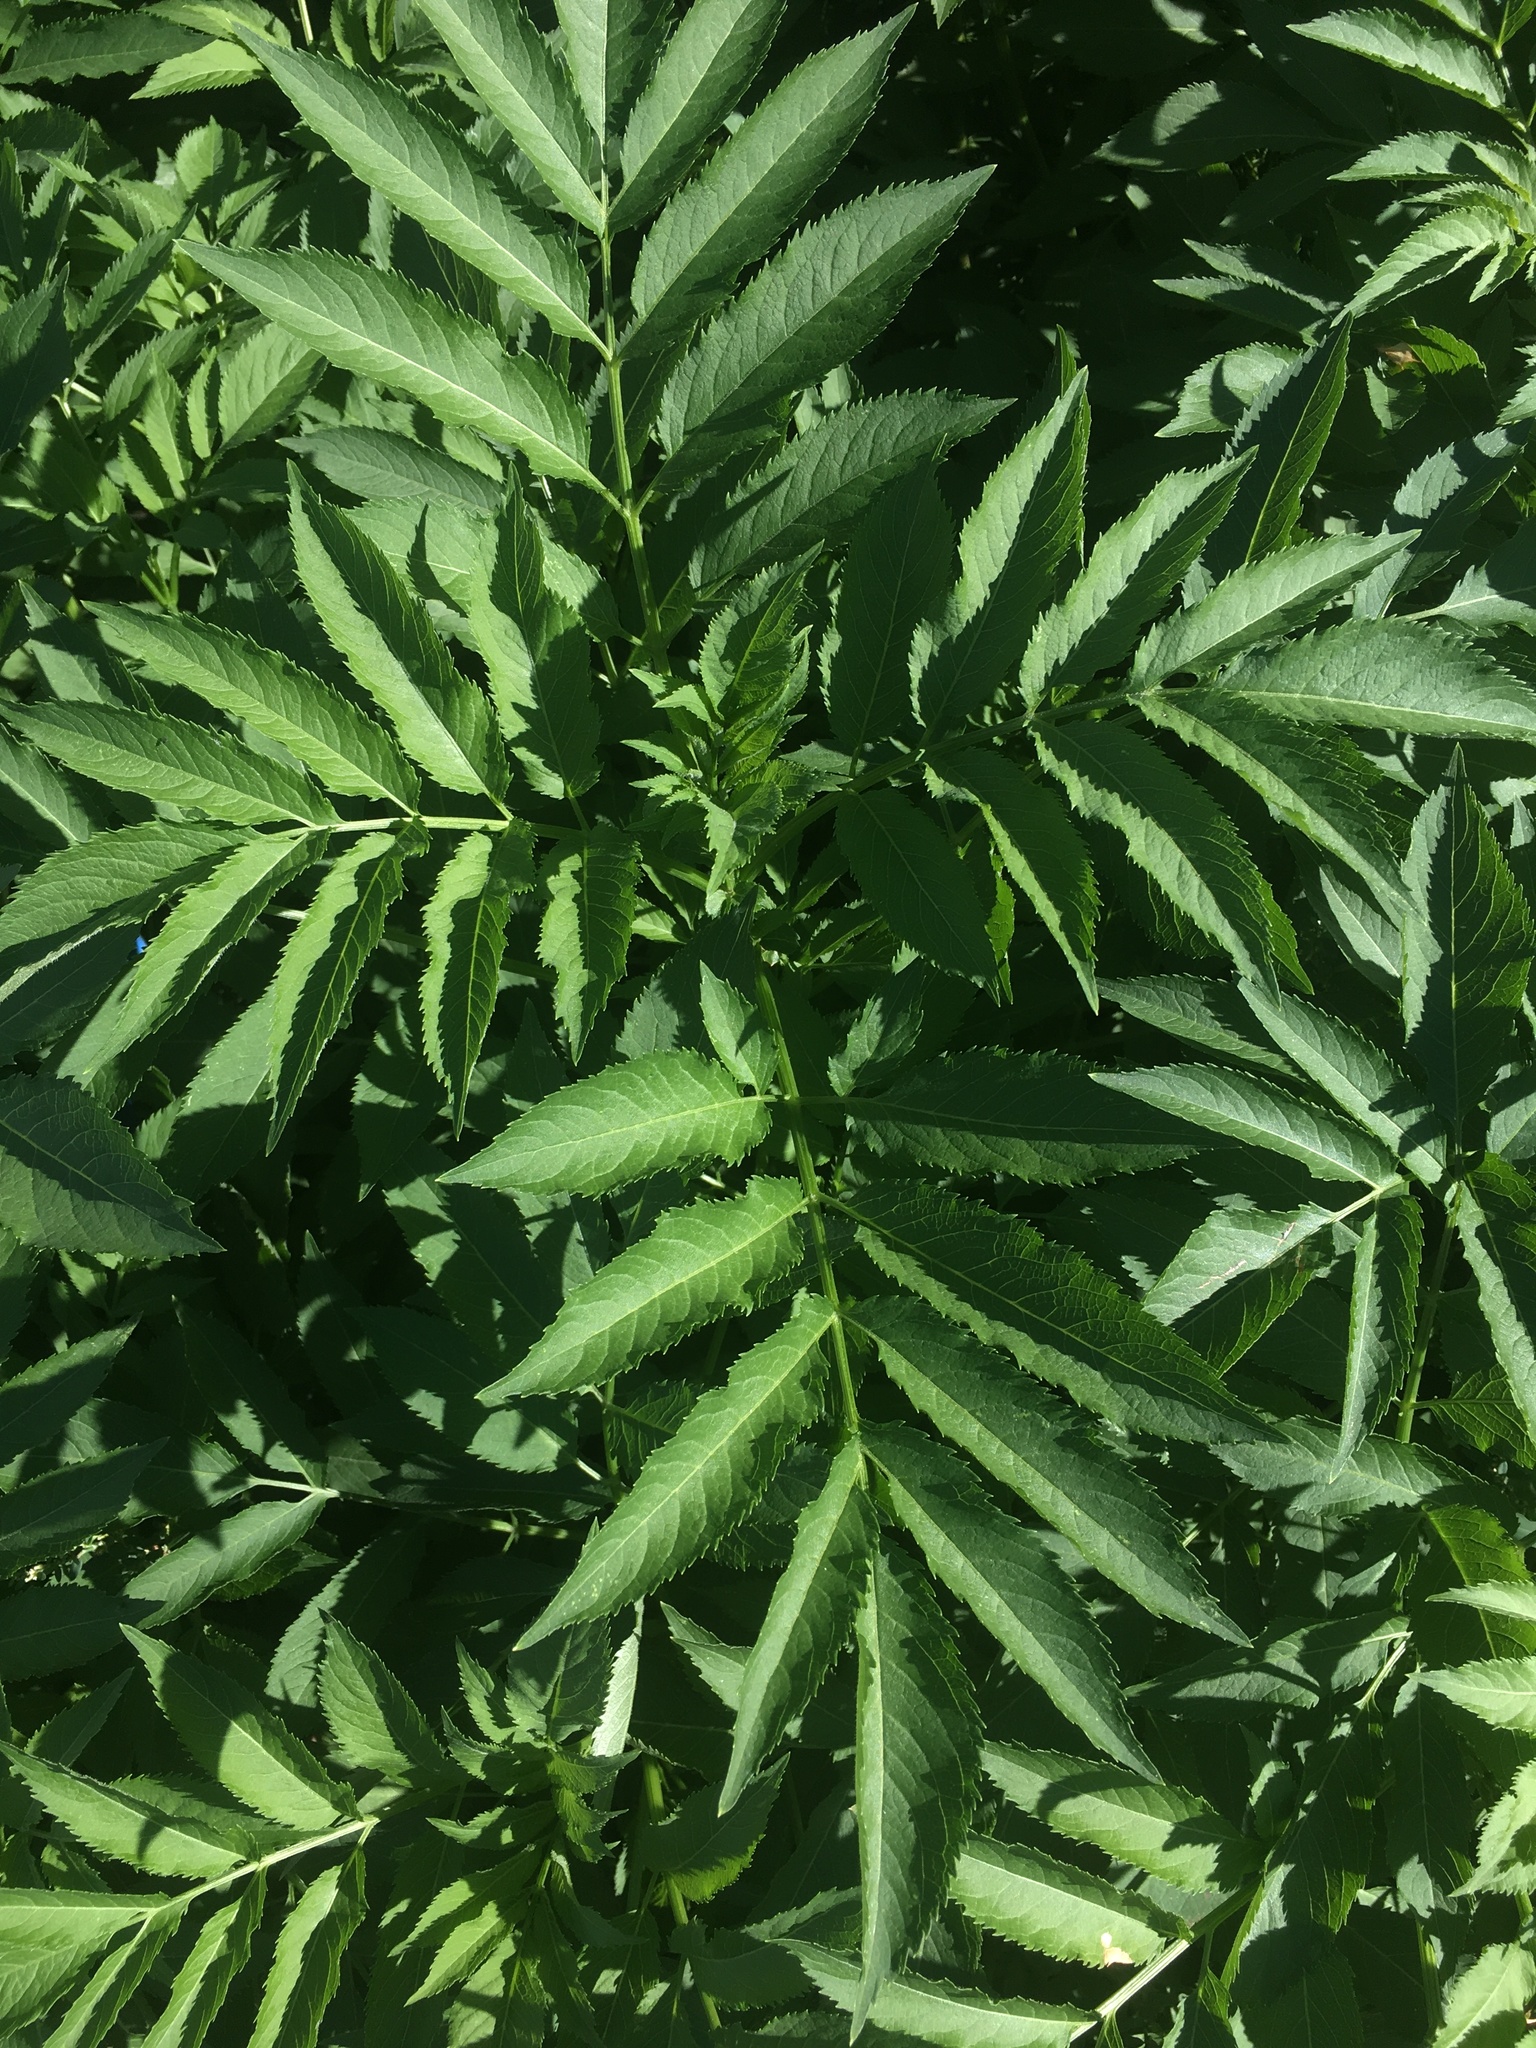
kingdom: Plantae
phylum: Tracheophyta
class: Magnoliopsida
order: Dipsacales
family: Viburnaceae
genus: Sambucus
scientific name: Sambucus ebulus
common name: Dwarf elder
